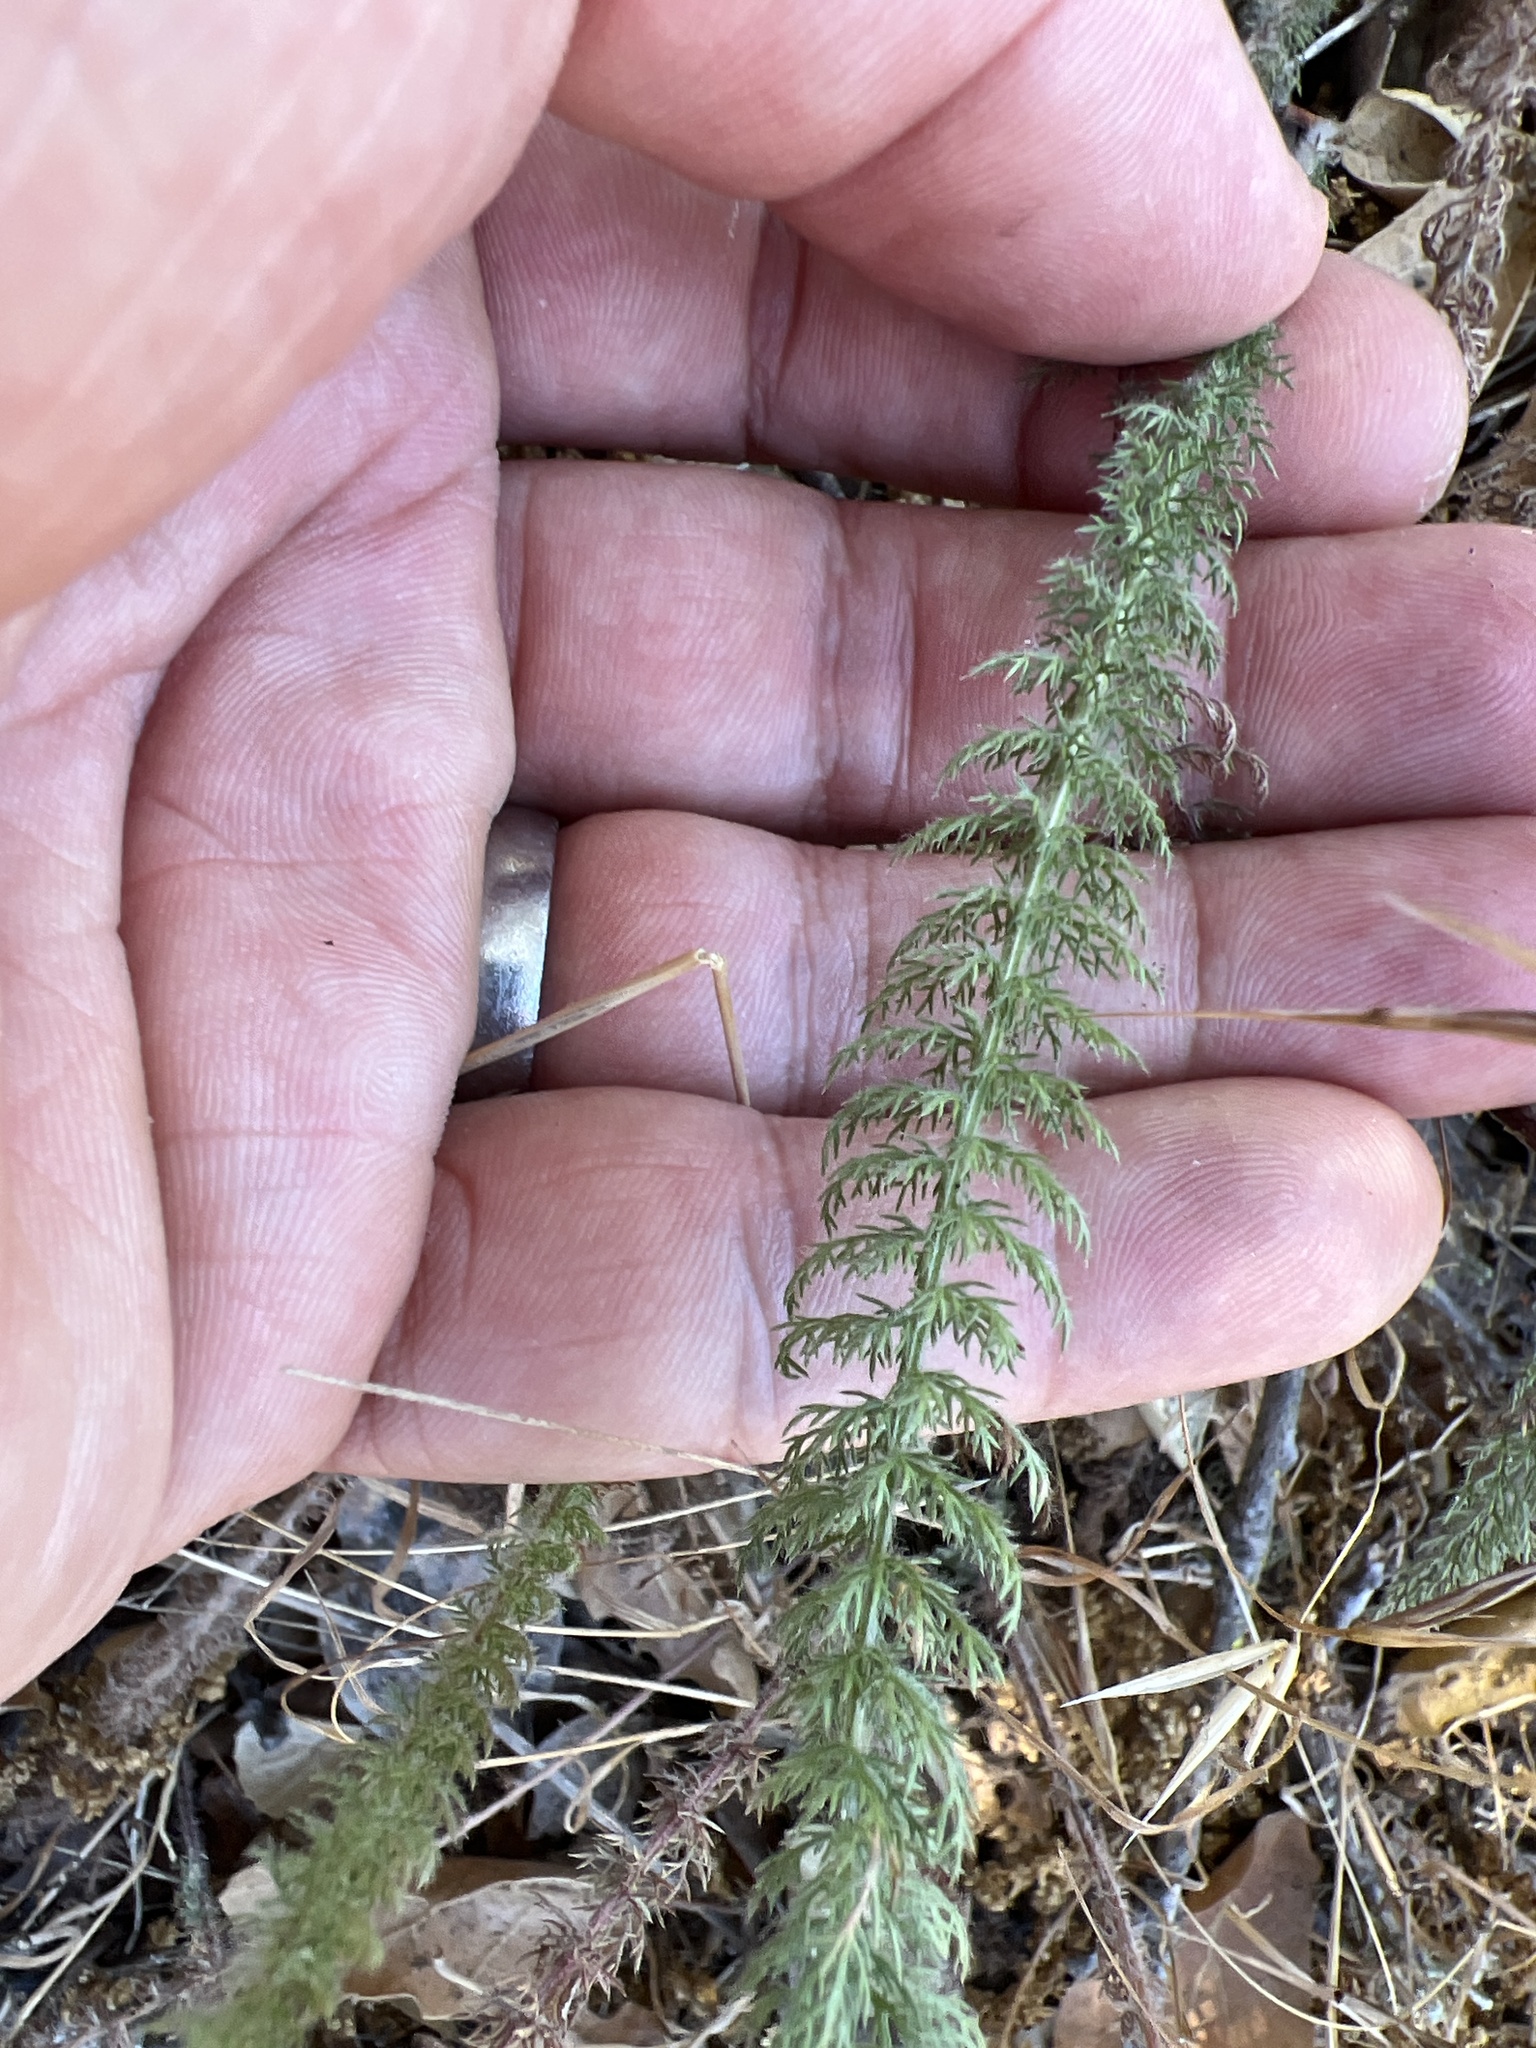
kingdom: Plantae
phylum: Tracheophyta
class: Magnoliopsida
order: Asterales
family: Asteraceae
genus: Achillea
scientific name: Achillea millefolium
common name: Yarrow
